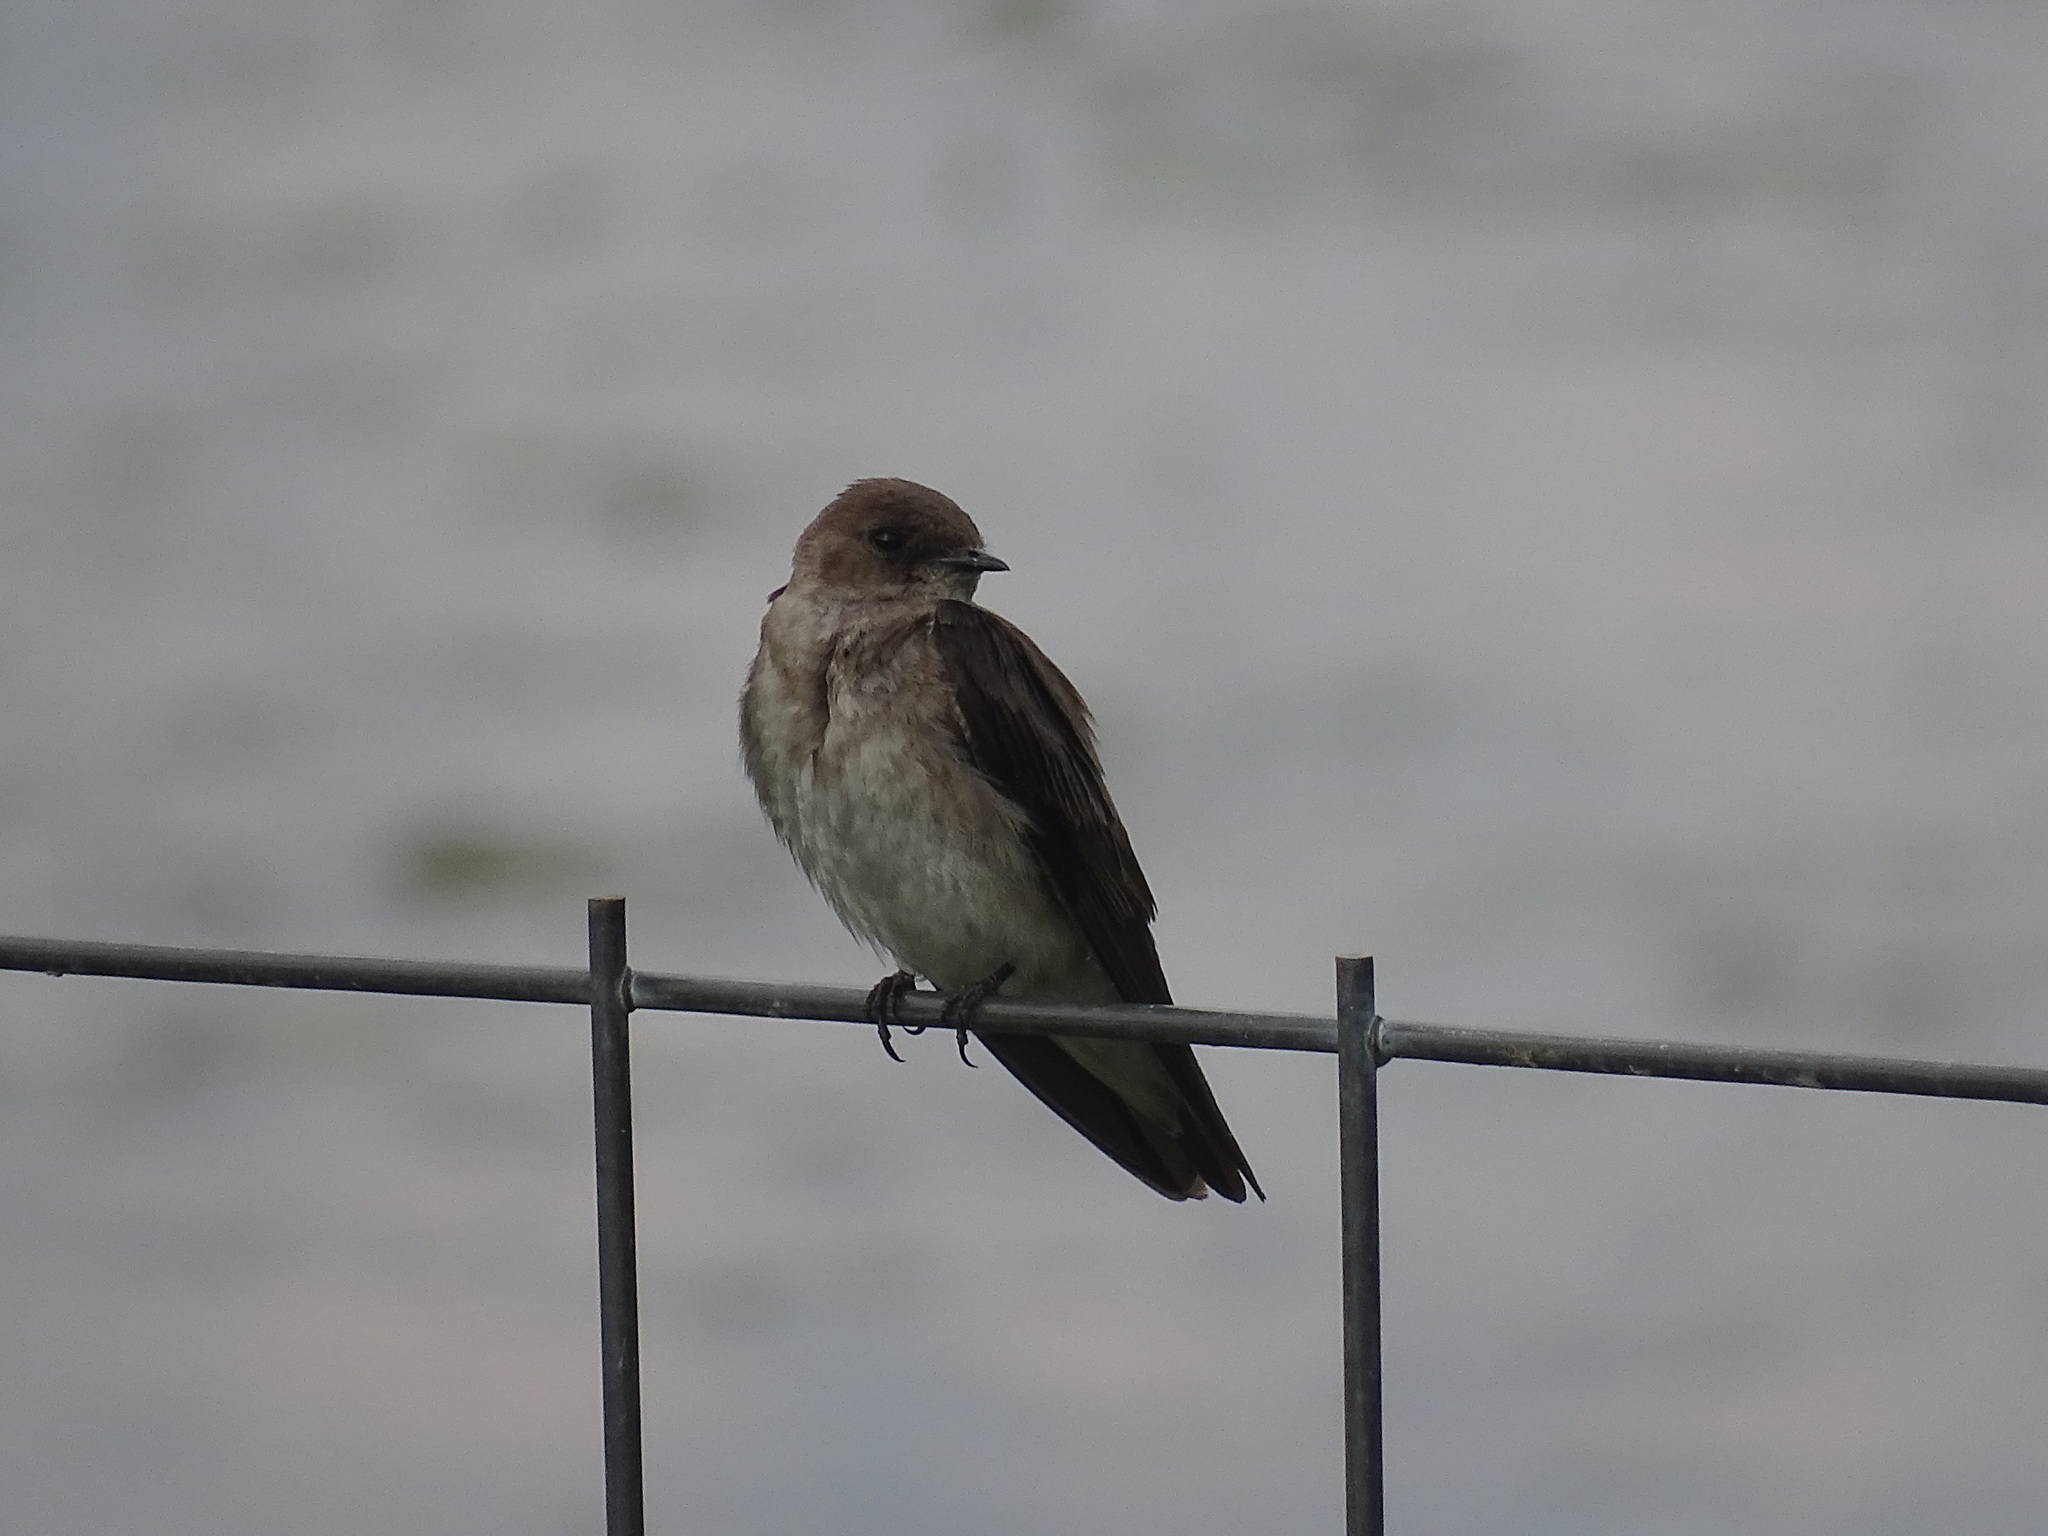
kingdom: Animalia
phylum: Chordata
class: Aves
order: Passeriformes
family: Hirundinidae
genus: Stelgidopteryx
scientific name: Stelgidopteryx serripennis
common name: Northern rough-winged swallow
